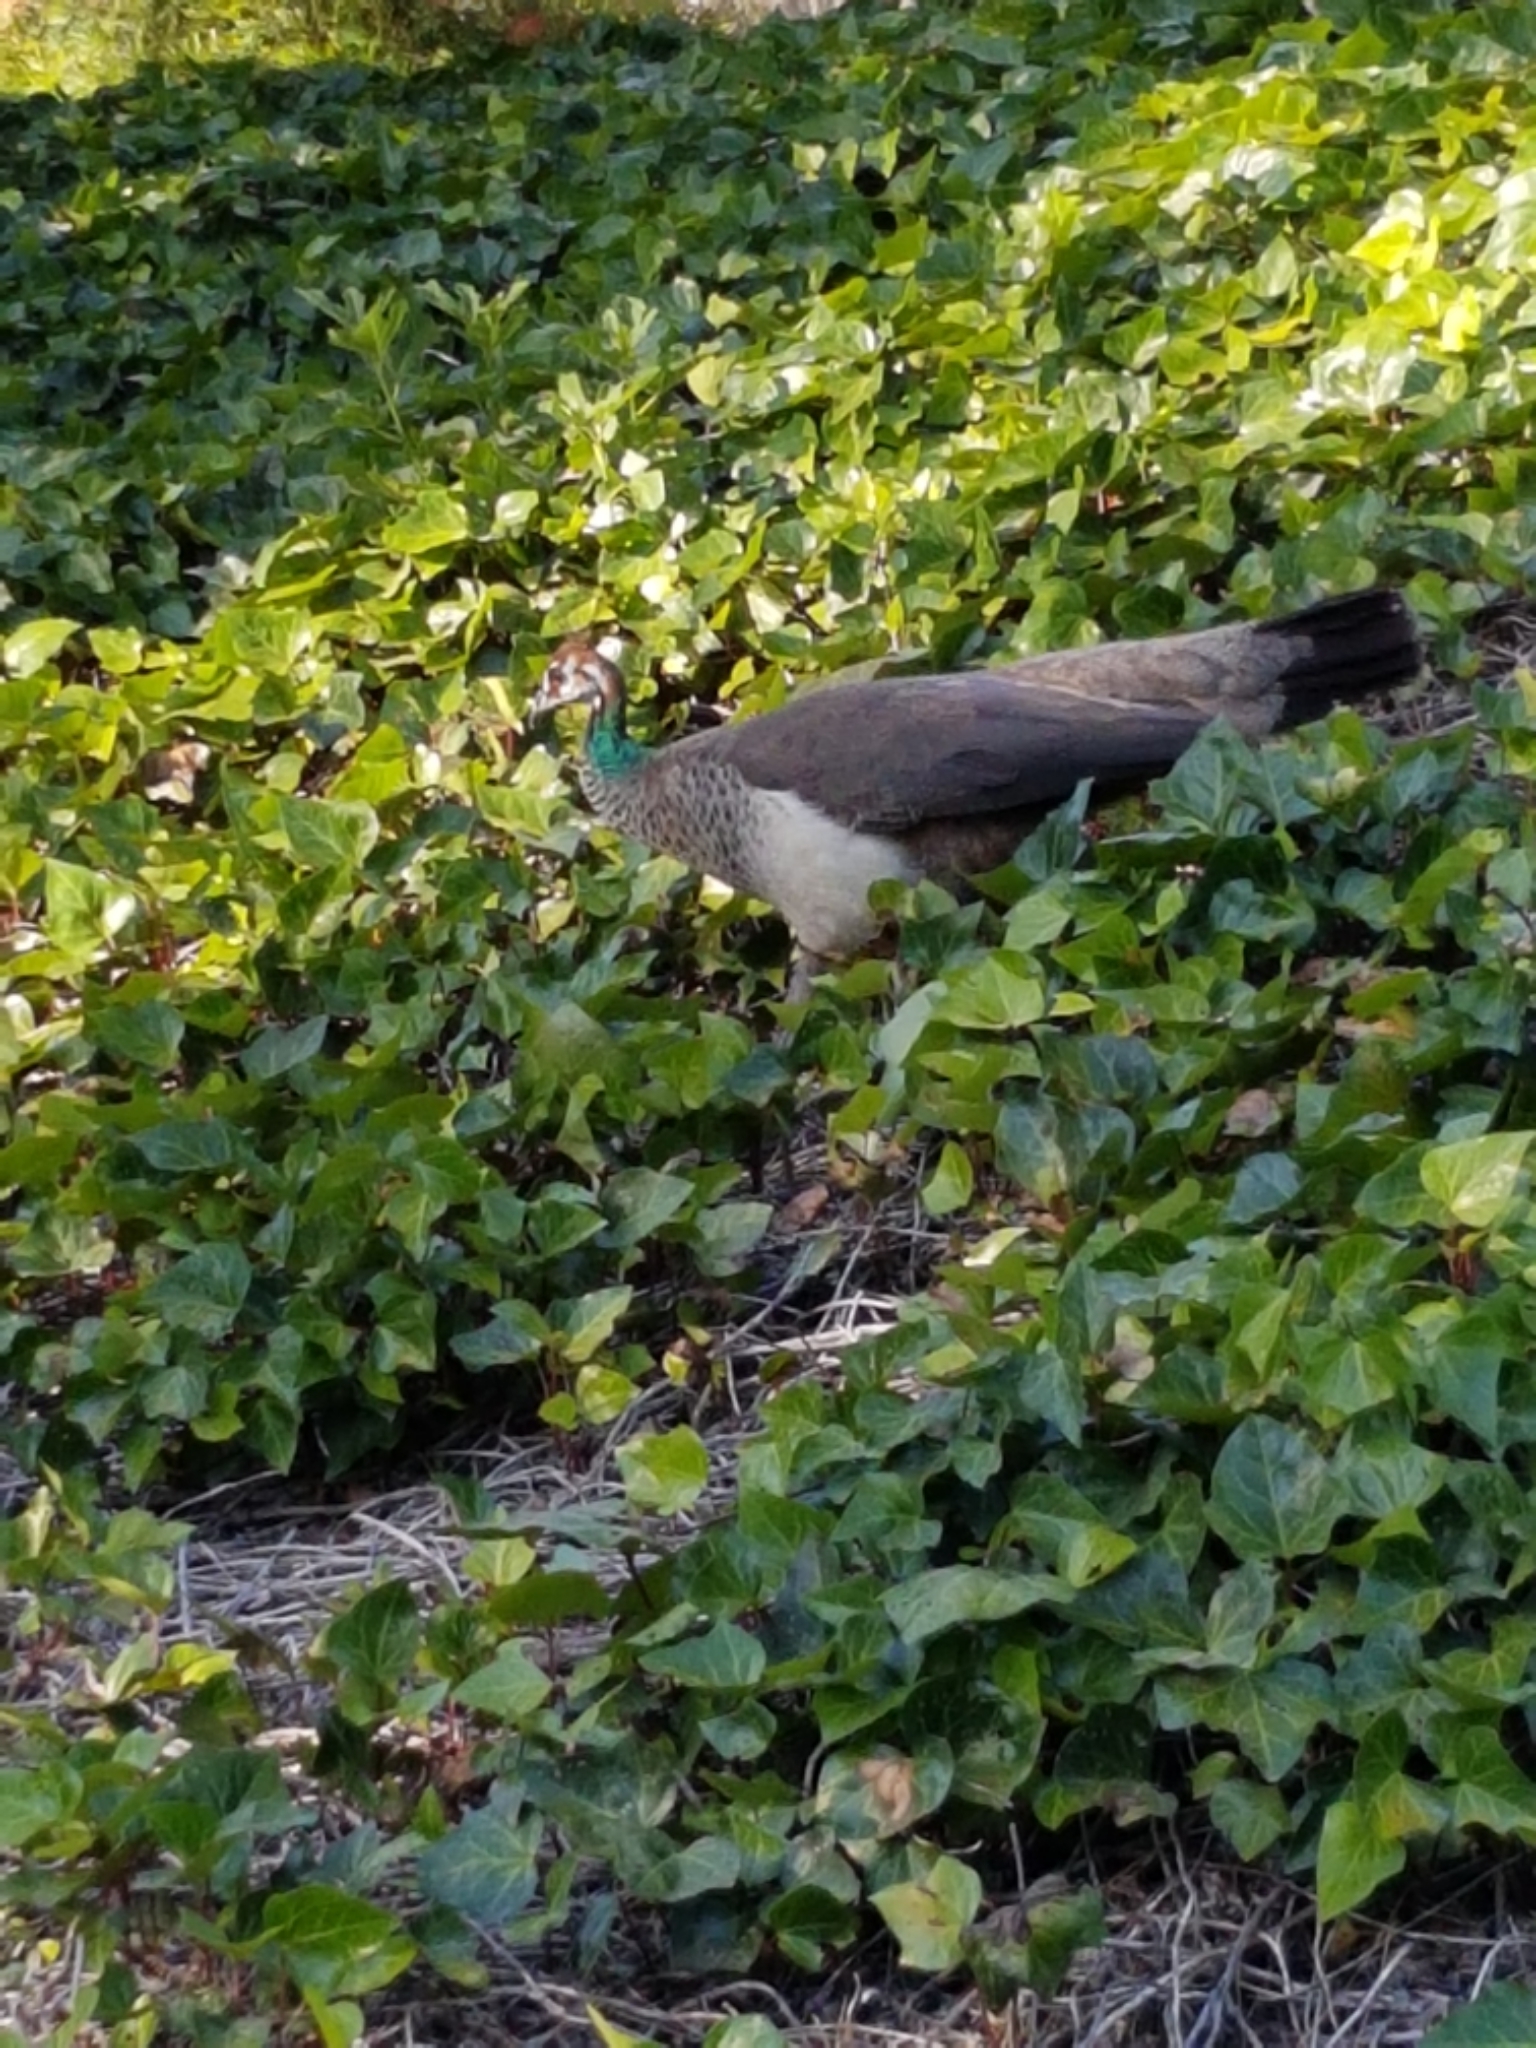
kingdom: Animalia
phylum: Chordata
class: Aves
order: Galliformes
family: Phasianidae
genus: Pavo
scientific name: Pavo cristatus
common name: Indian peafowl
